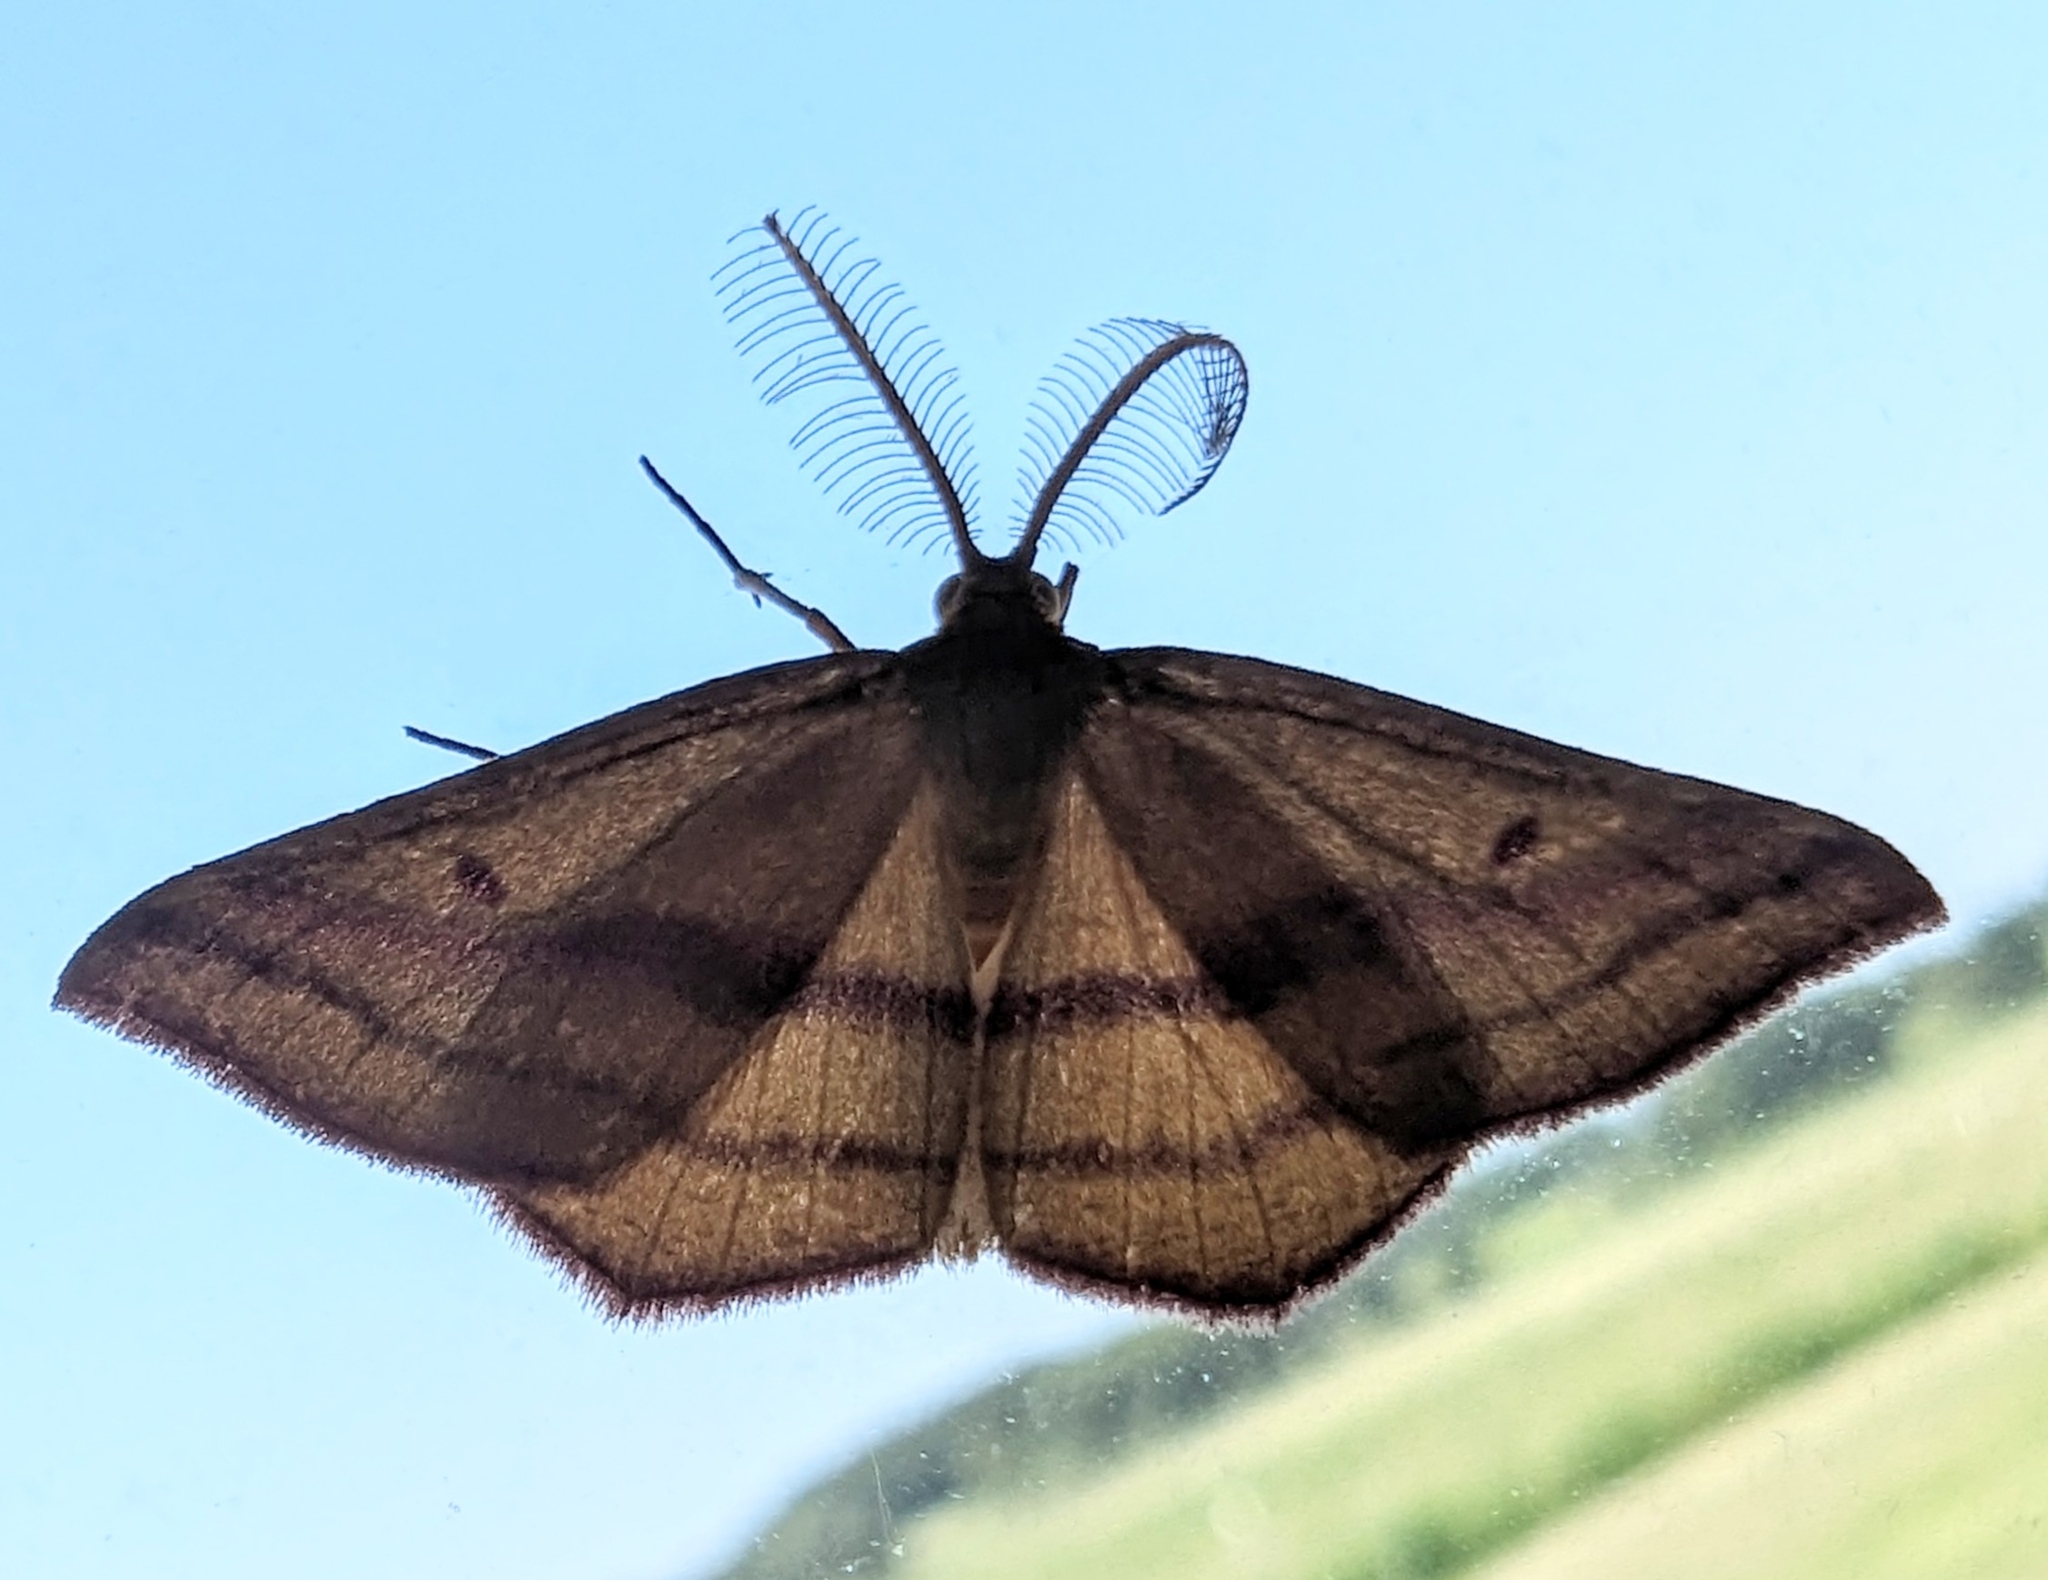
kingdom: Animalia
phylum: Arthropoda
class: Insecta
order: Lepidoptera
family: Geometridae
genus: Haematopis
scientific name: Haematopis grataria
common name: Chickweed geometer
